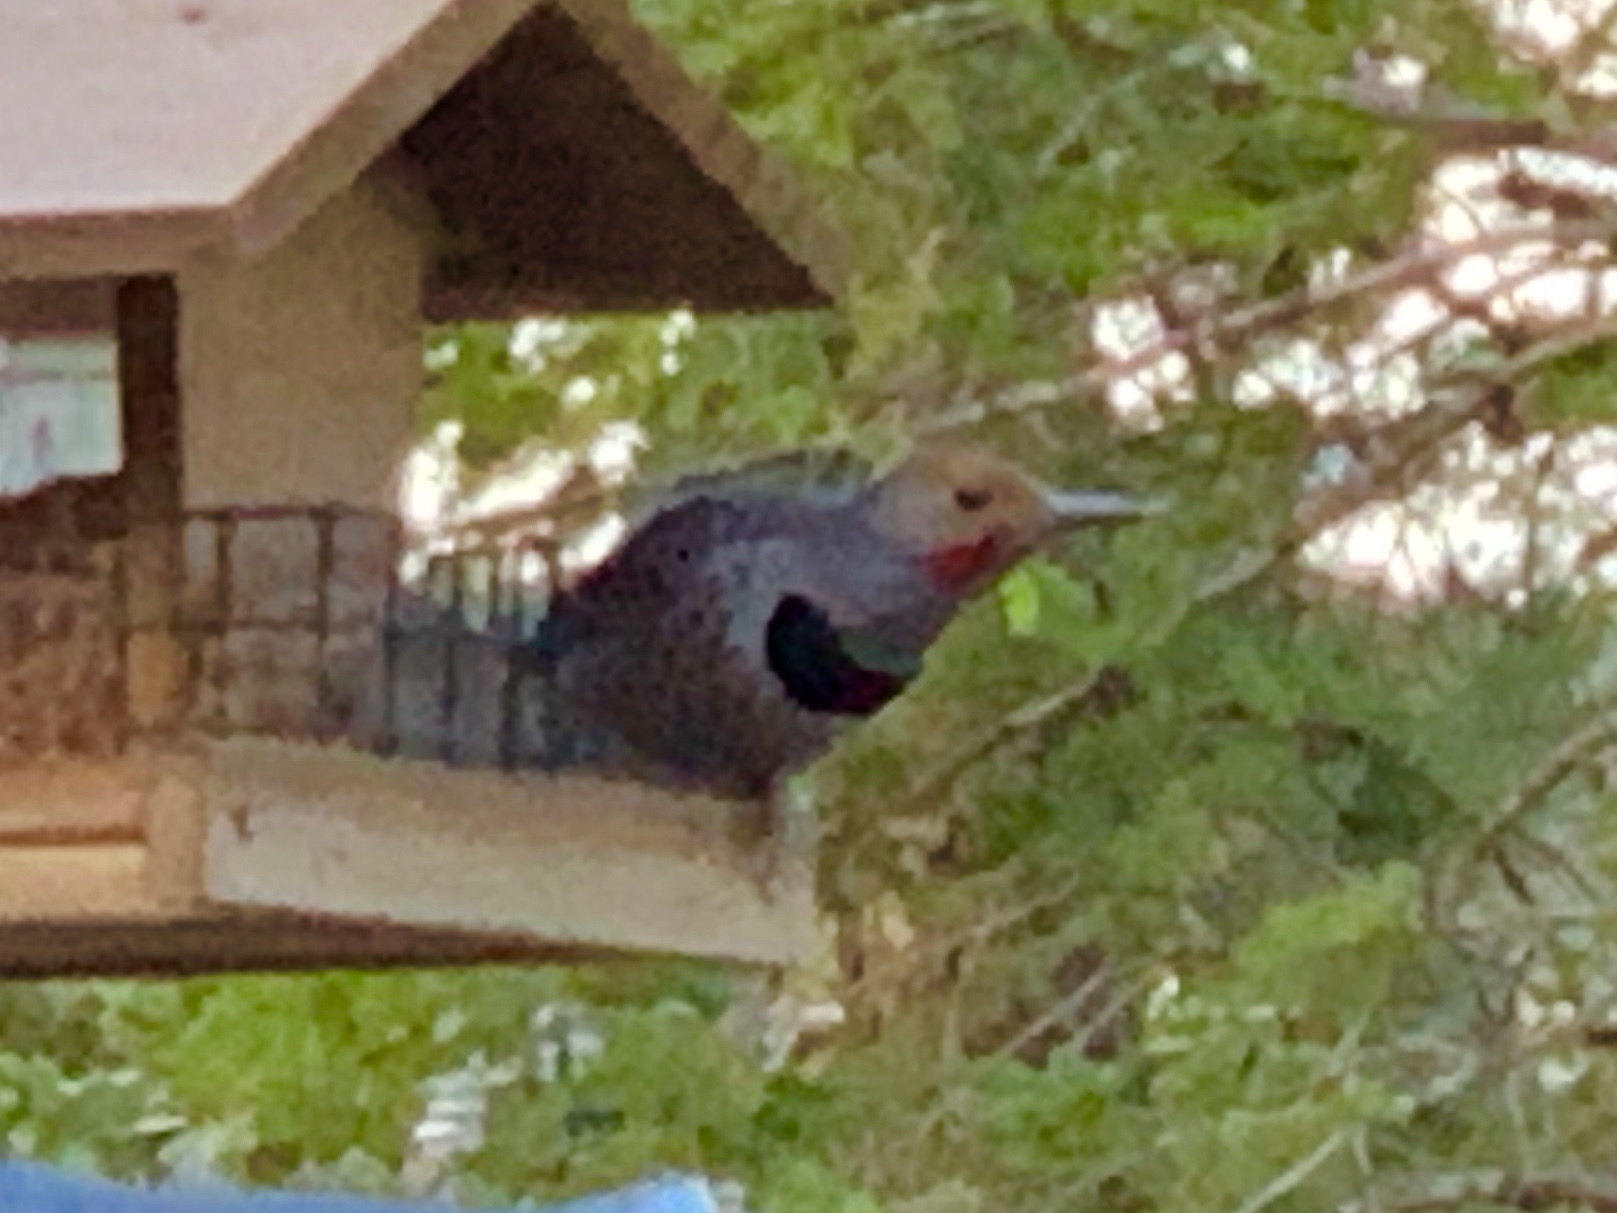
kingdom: Animalia
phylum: Chordata
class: Aves
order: Piciformes
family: Picidae
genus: Colaptes
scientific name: Colaptes auratus
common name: Northern flicker
